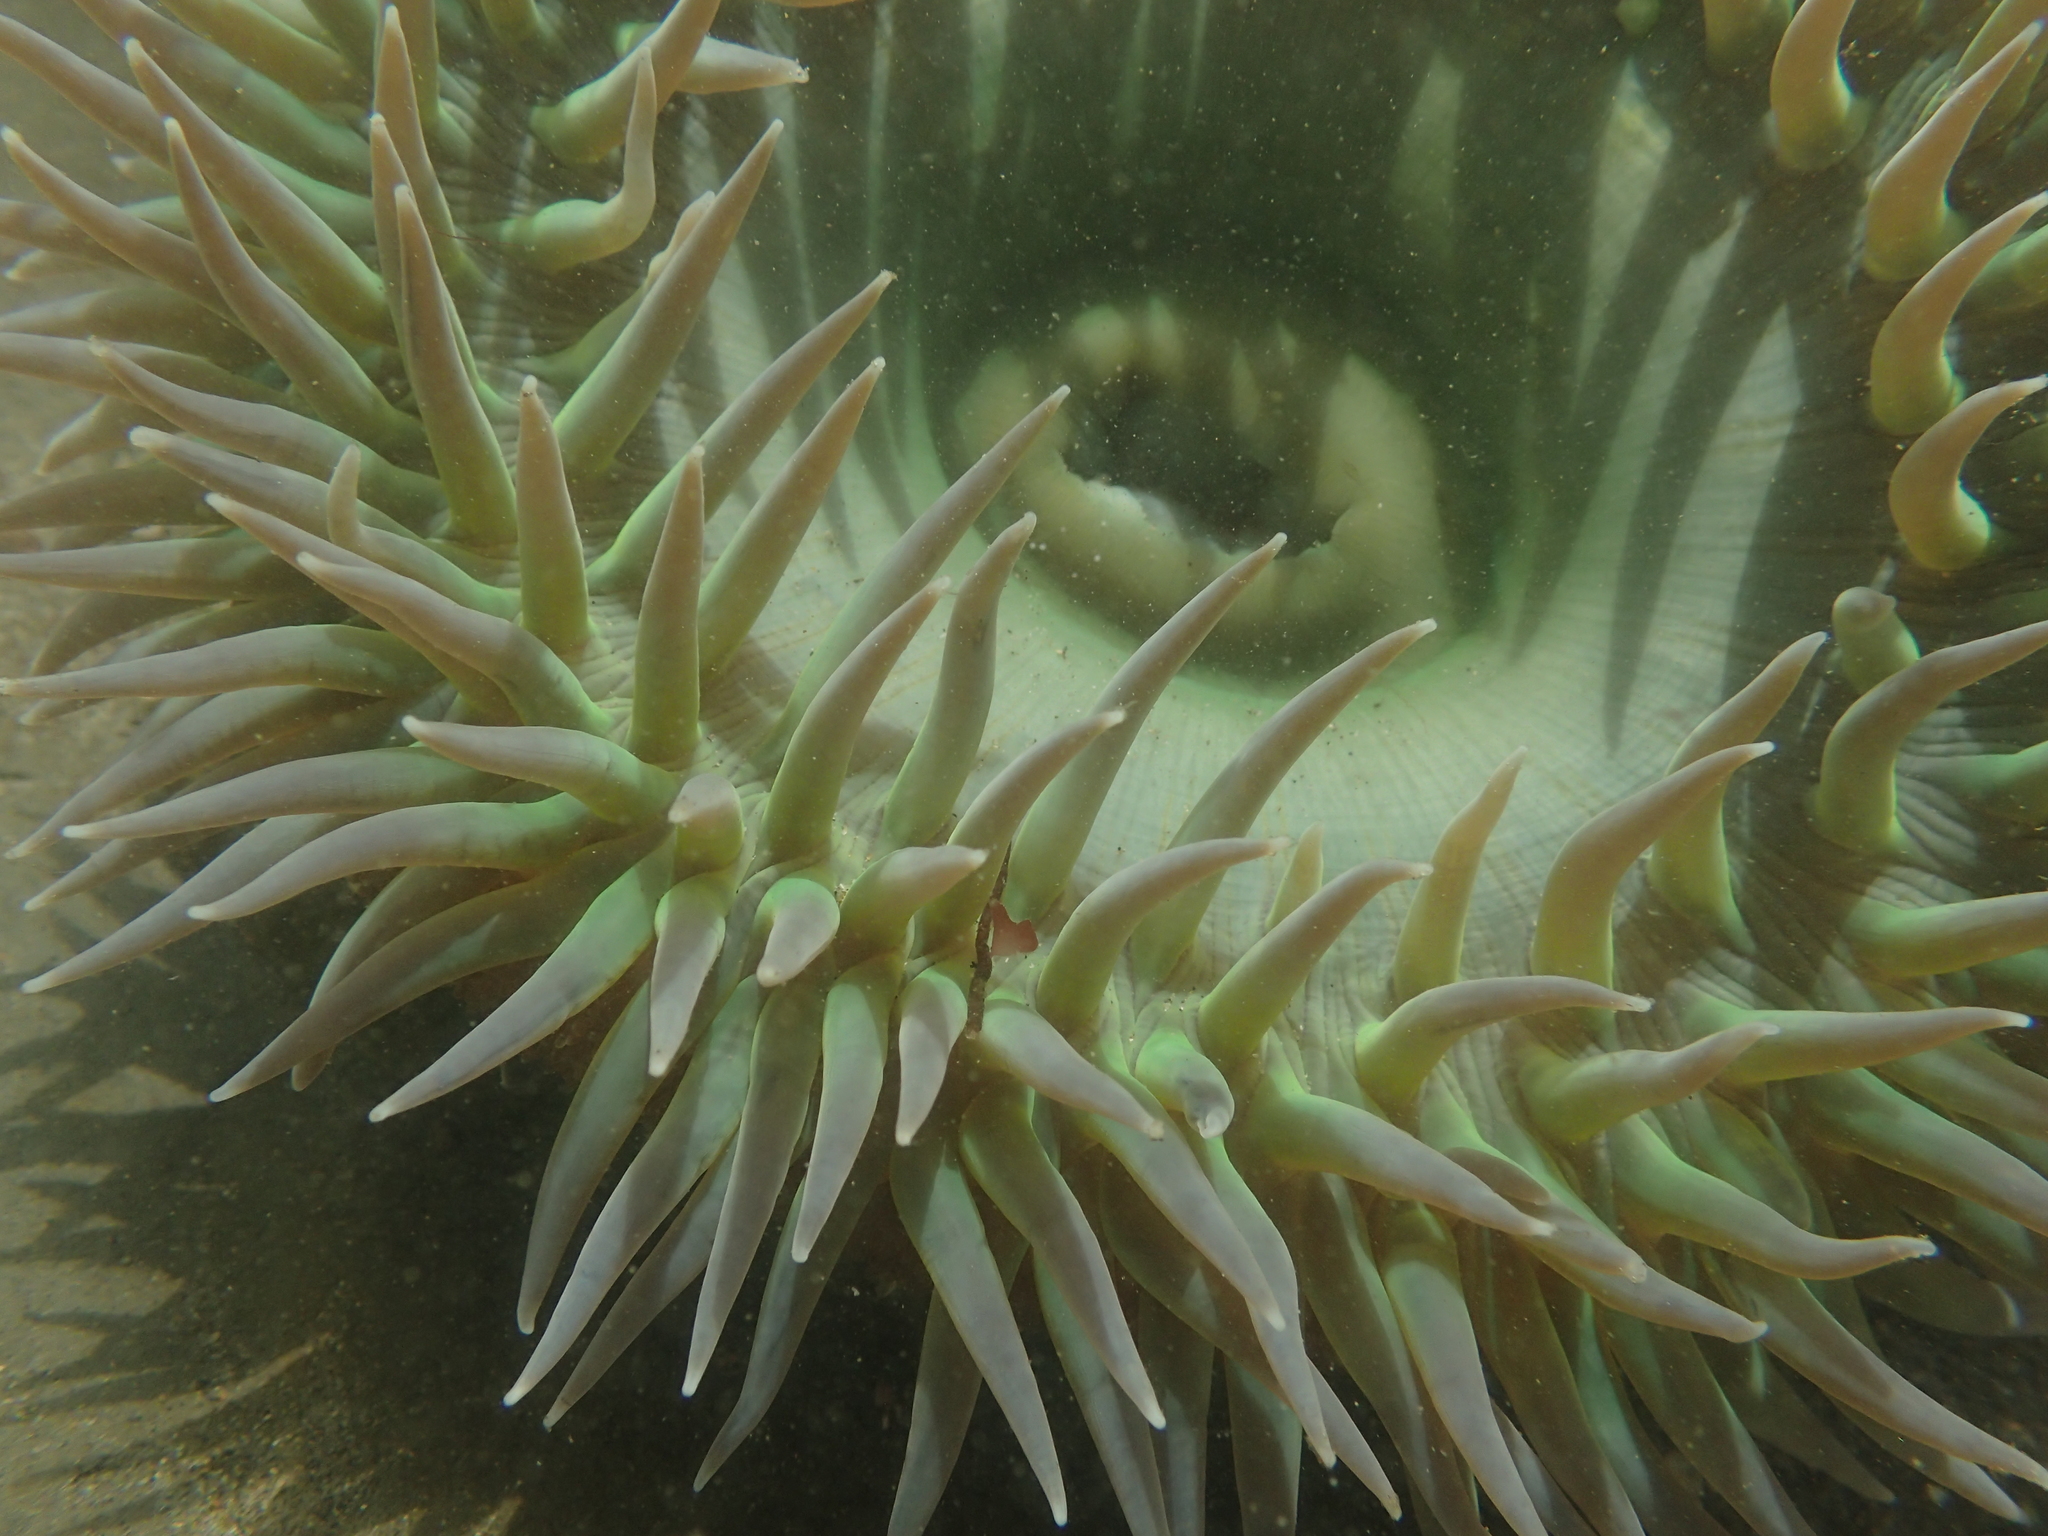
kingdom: Animalia
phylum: Cnidaria
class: Anthozoa
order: Actiniaria
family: Actiniidae
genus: Anthopleura
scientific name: Anthopleura xanthogrammica
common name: Giant green anemone
